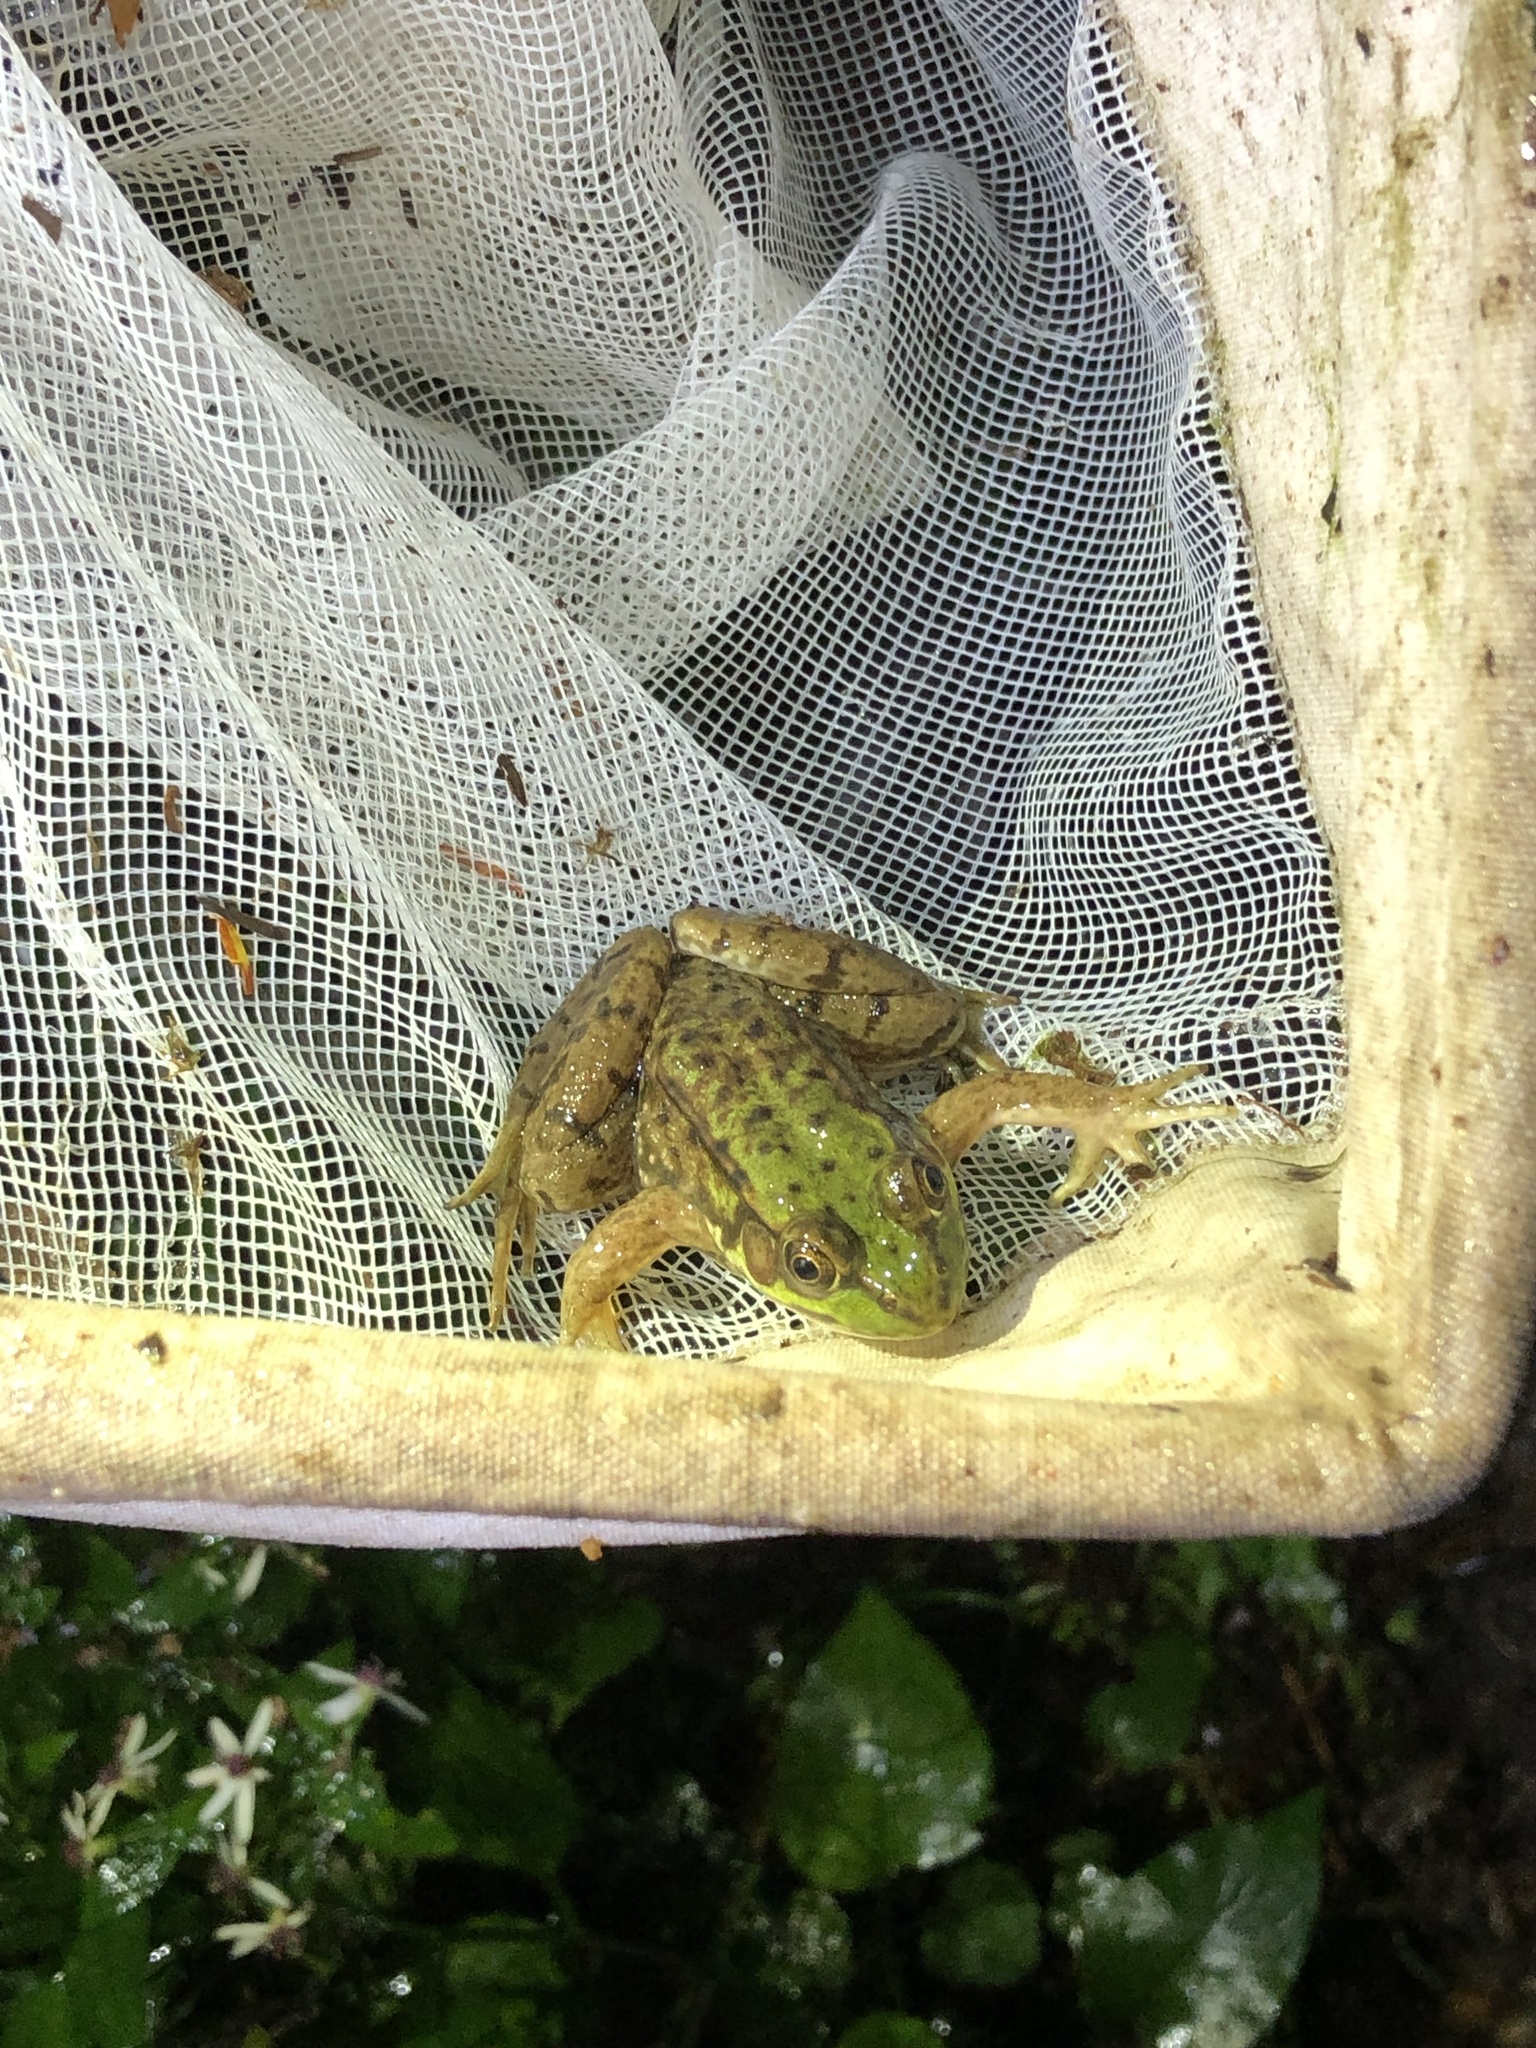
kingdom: Animalia
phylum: Chordata
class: Amphibia
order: Anura
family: Ranidae
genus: Lithobates
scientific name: Lithobates clamitans
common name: Green frog
